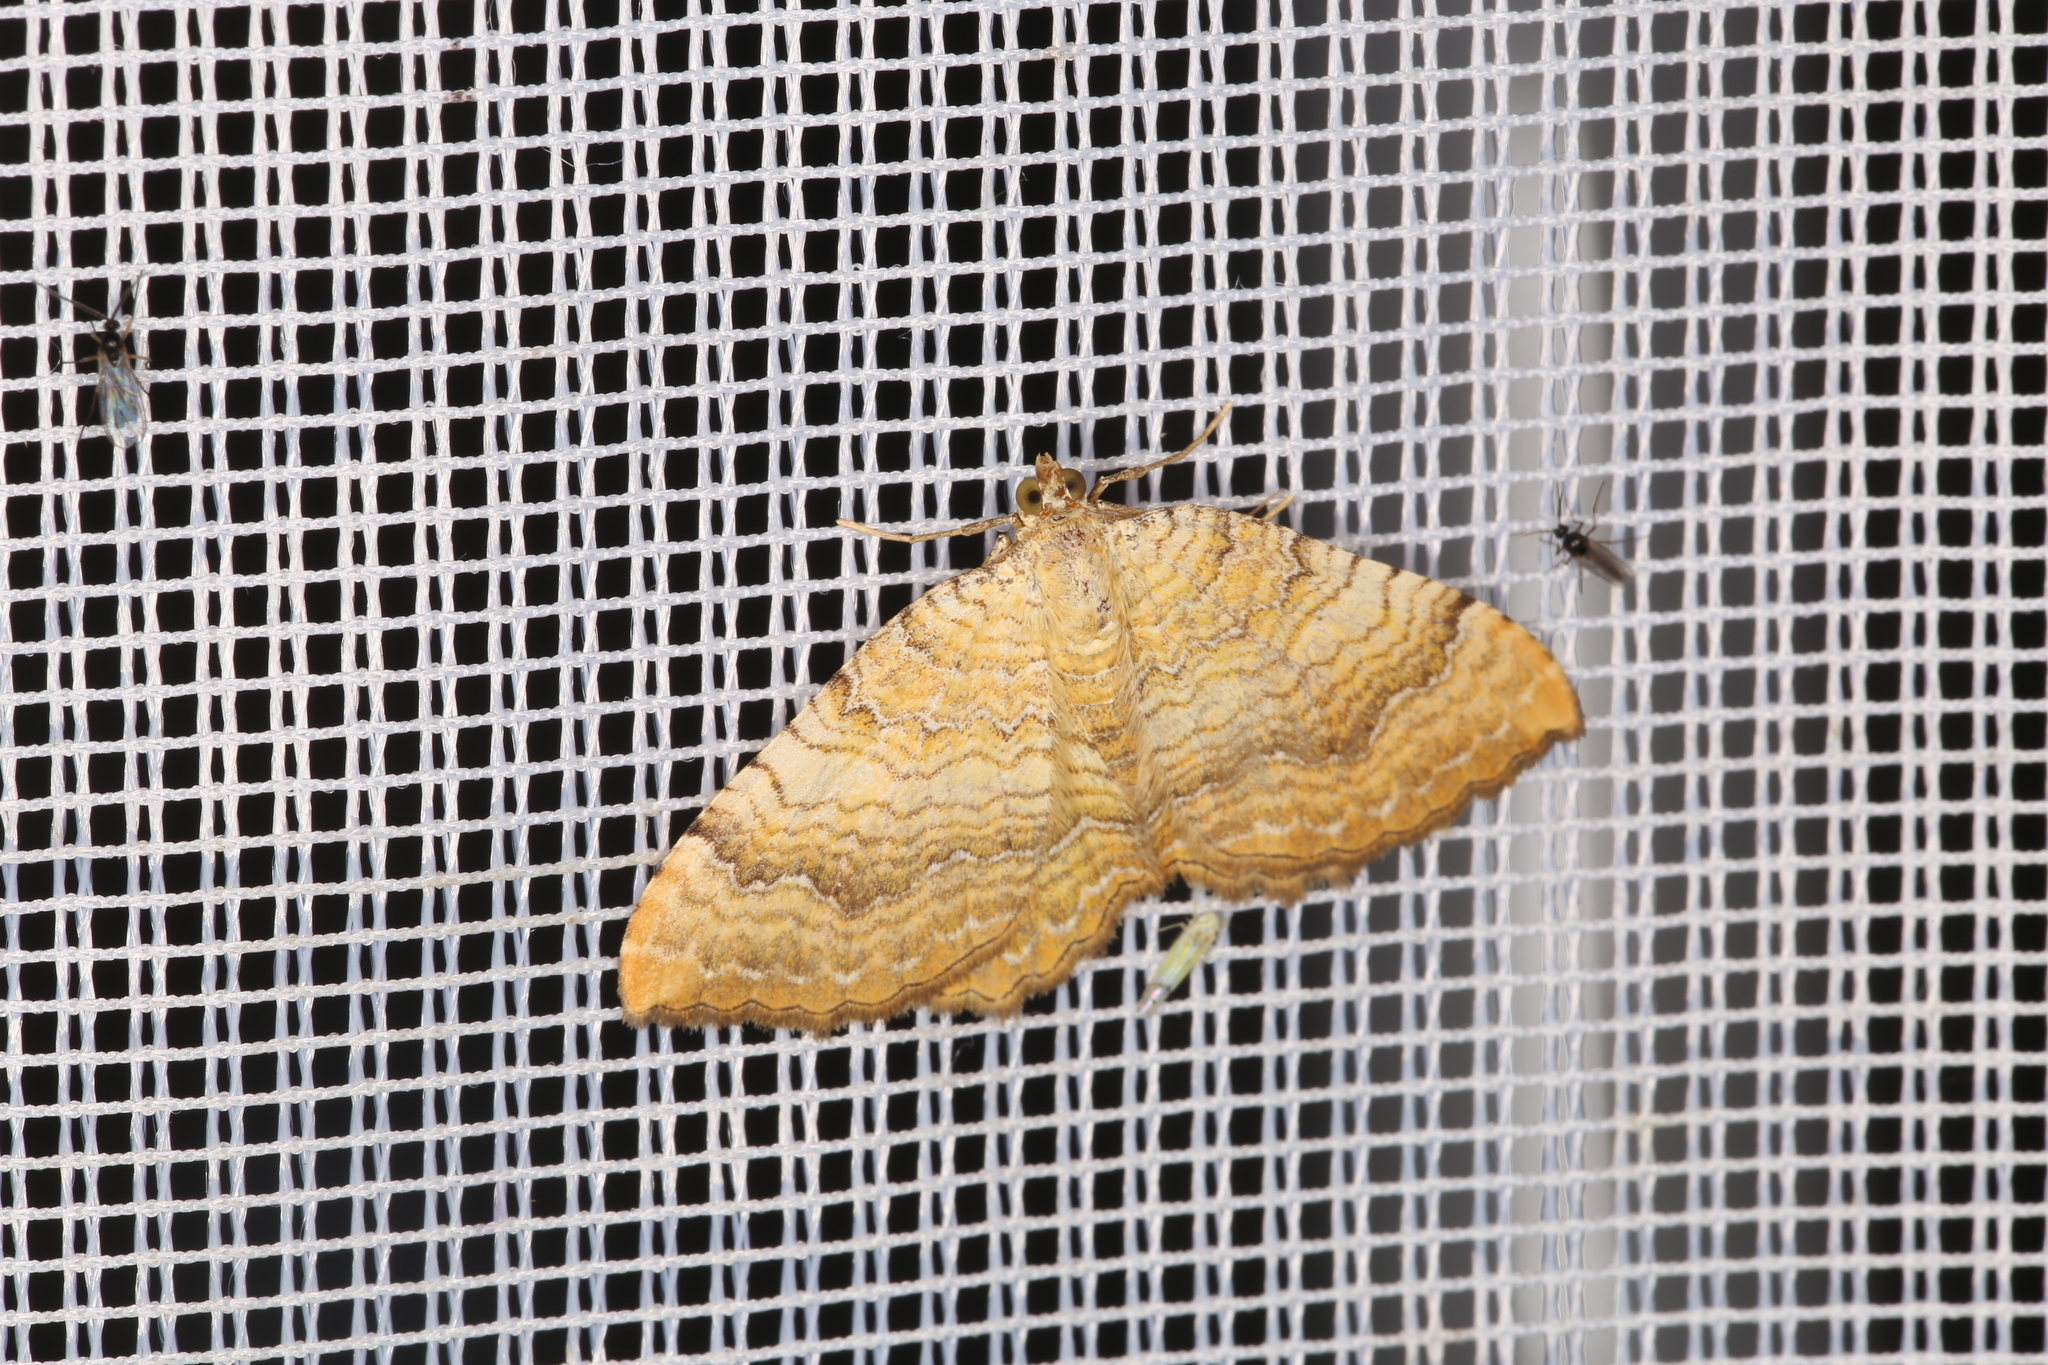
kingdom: Animalia
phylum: Arthropoda
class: Insecta
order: Lepidoptera
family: Geometridae
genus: Camptogramma
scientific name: Camptogramma bilineata
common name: Yellow shell
